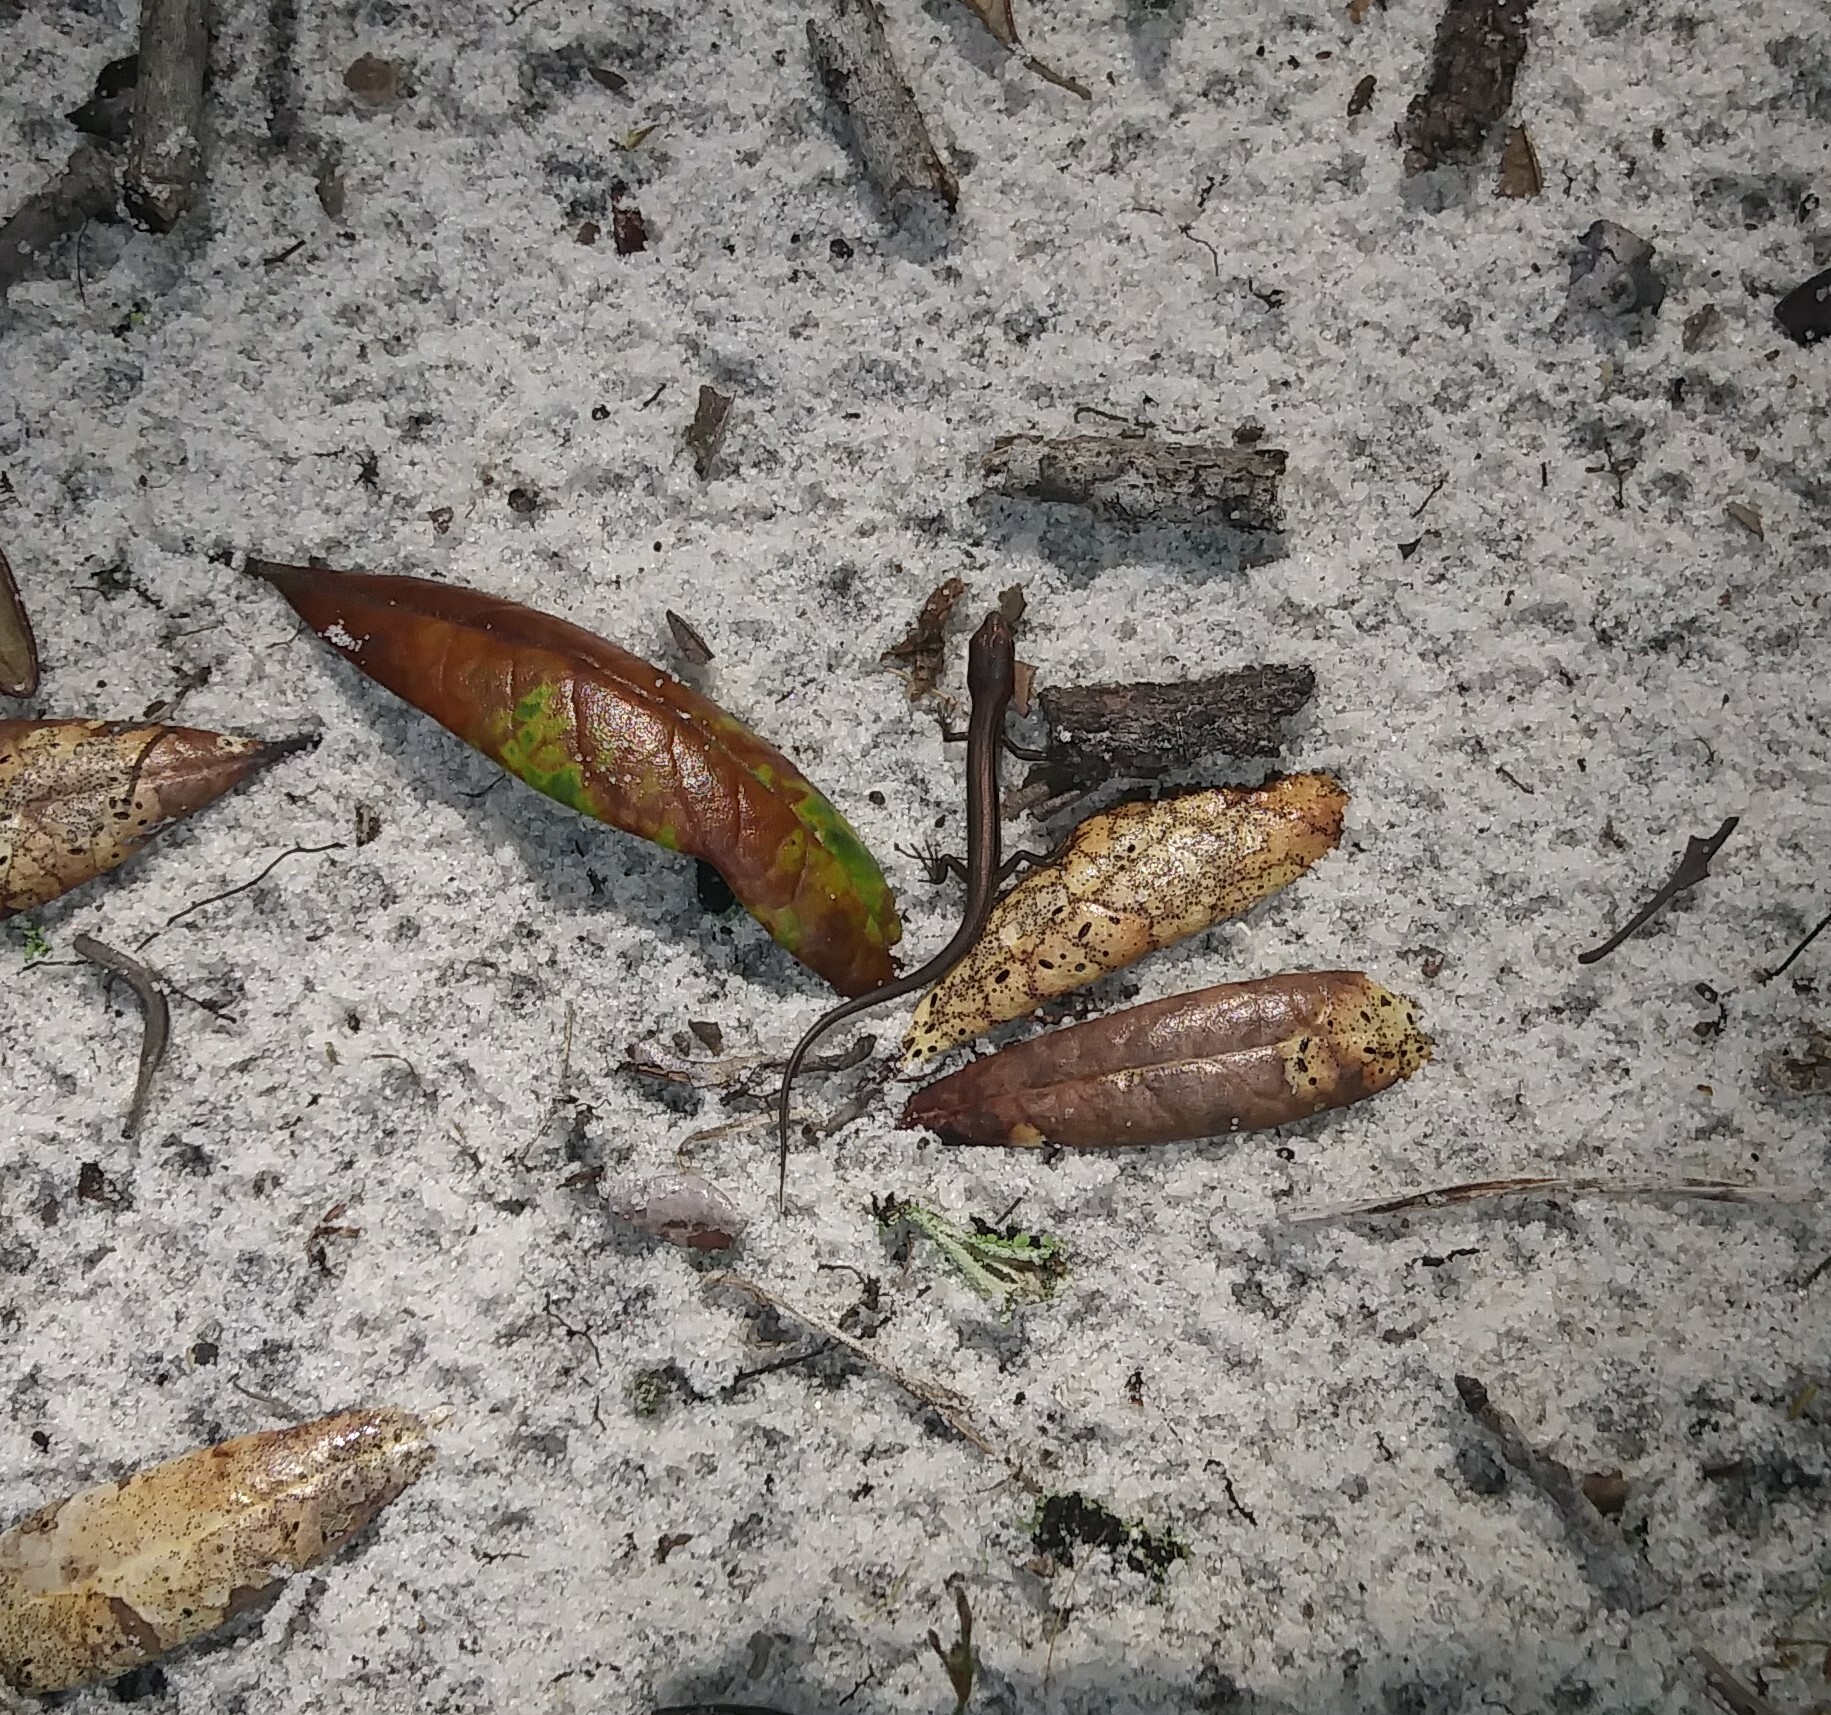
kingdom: Animalia
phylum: Chordata
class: Squamata
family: Scincidae
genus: Scincella
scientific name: Scincella lateralis
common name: Ground skink
